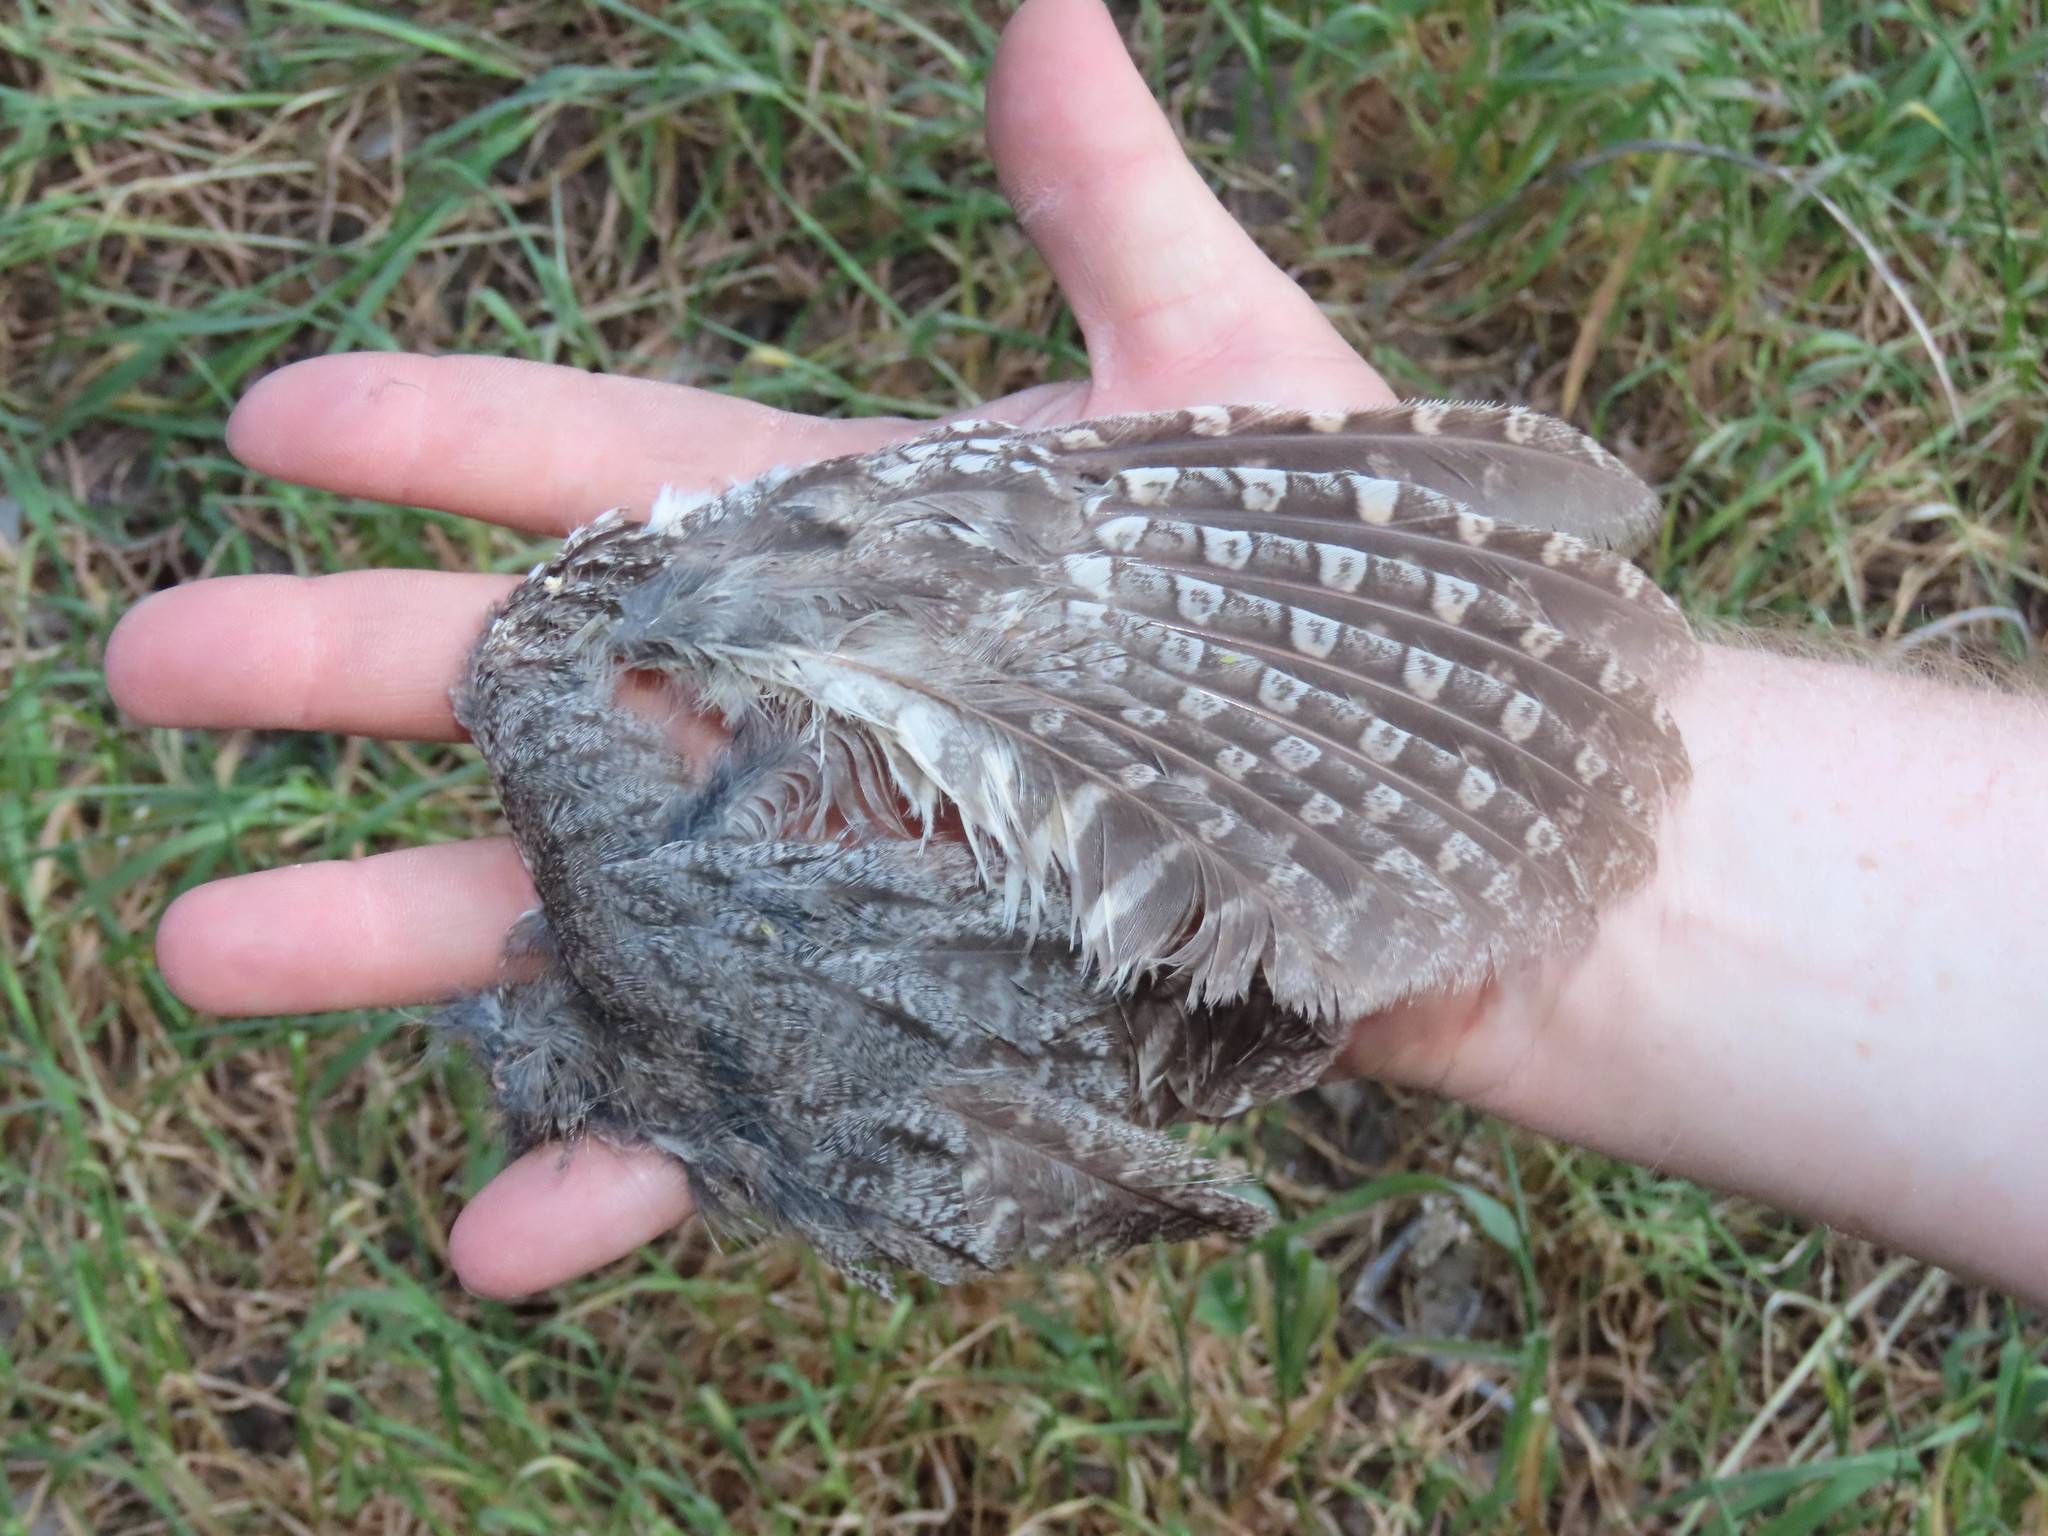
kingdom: Animalia
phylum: Chordata
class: Aves
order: Strigiformes
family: Strigidae
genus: Megascops
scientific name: Megascops kennicottii
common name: Western screech-owl
